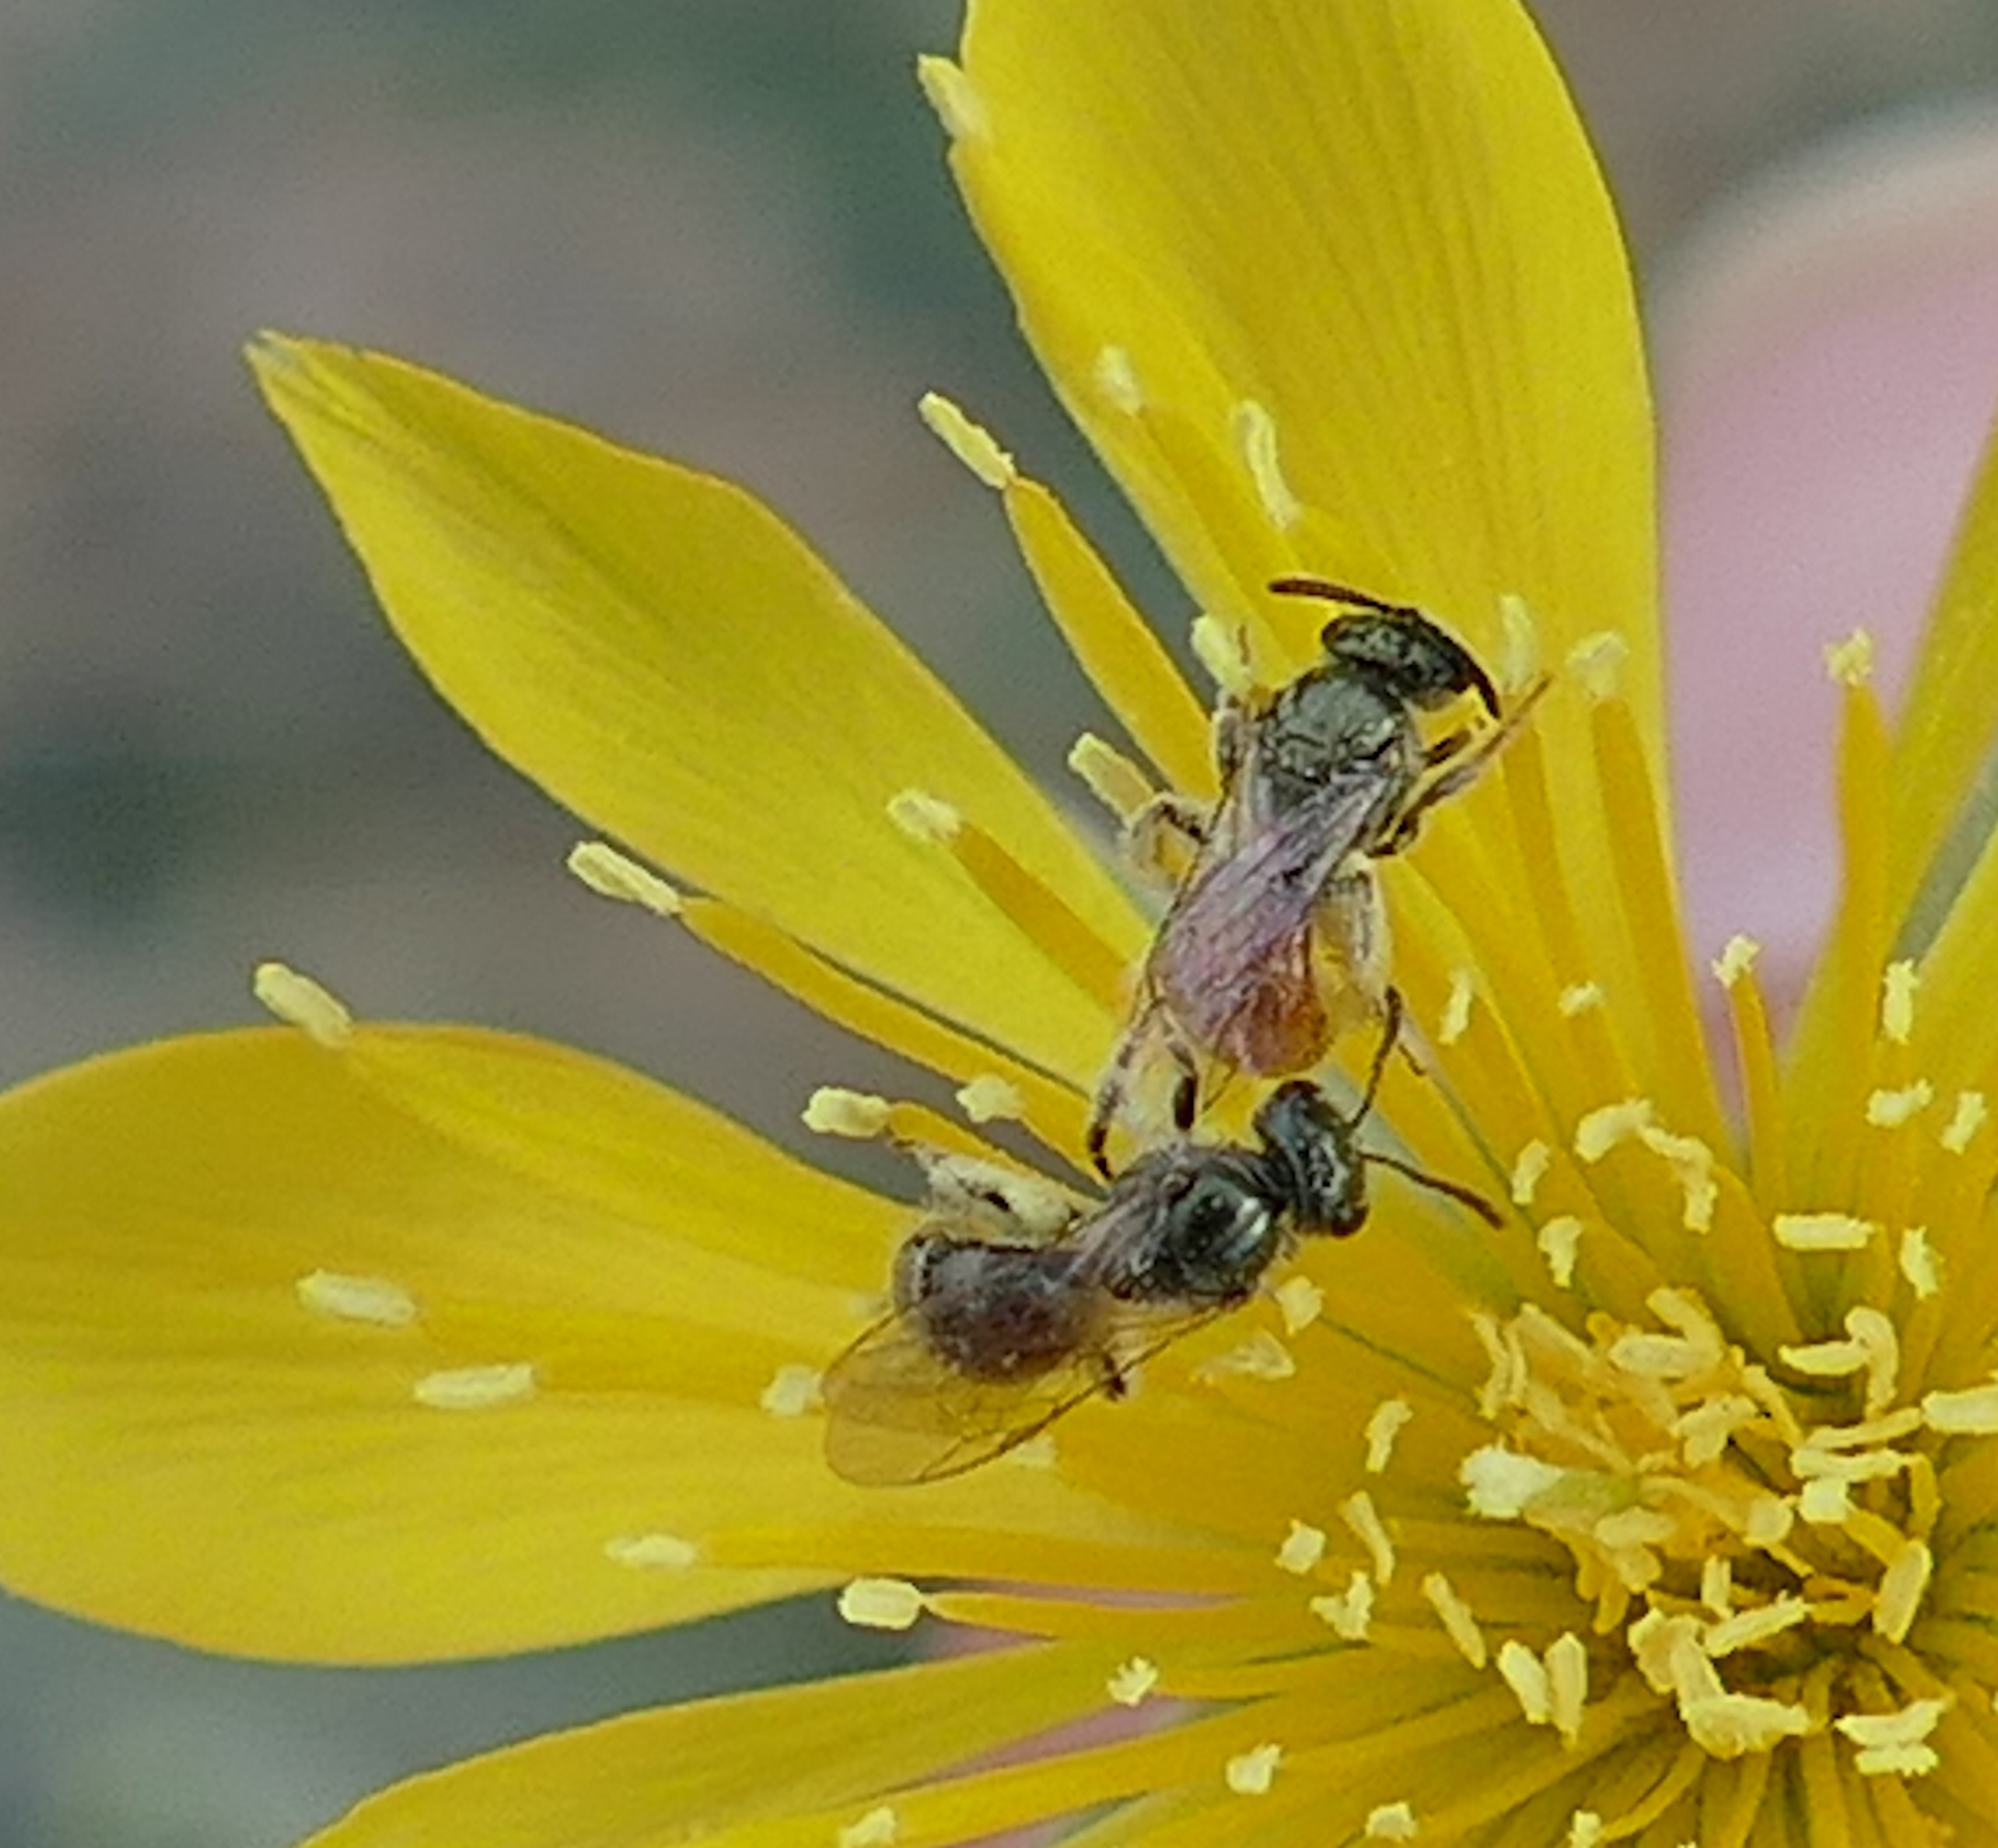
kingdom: Animalia
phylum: Arthropoda
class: Insecta
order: Hymenoptera
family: Halictidae
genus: Dialictus
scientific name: Dialictus
